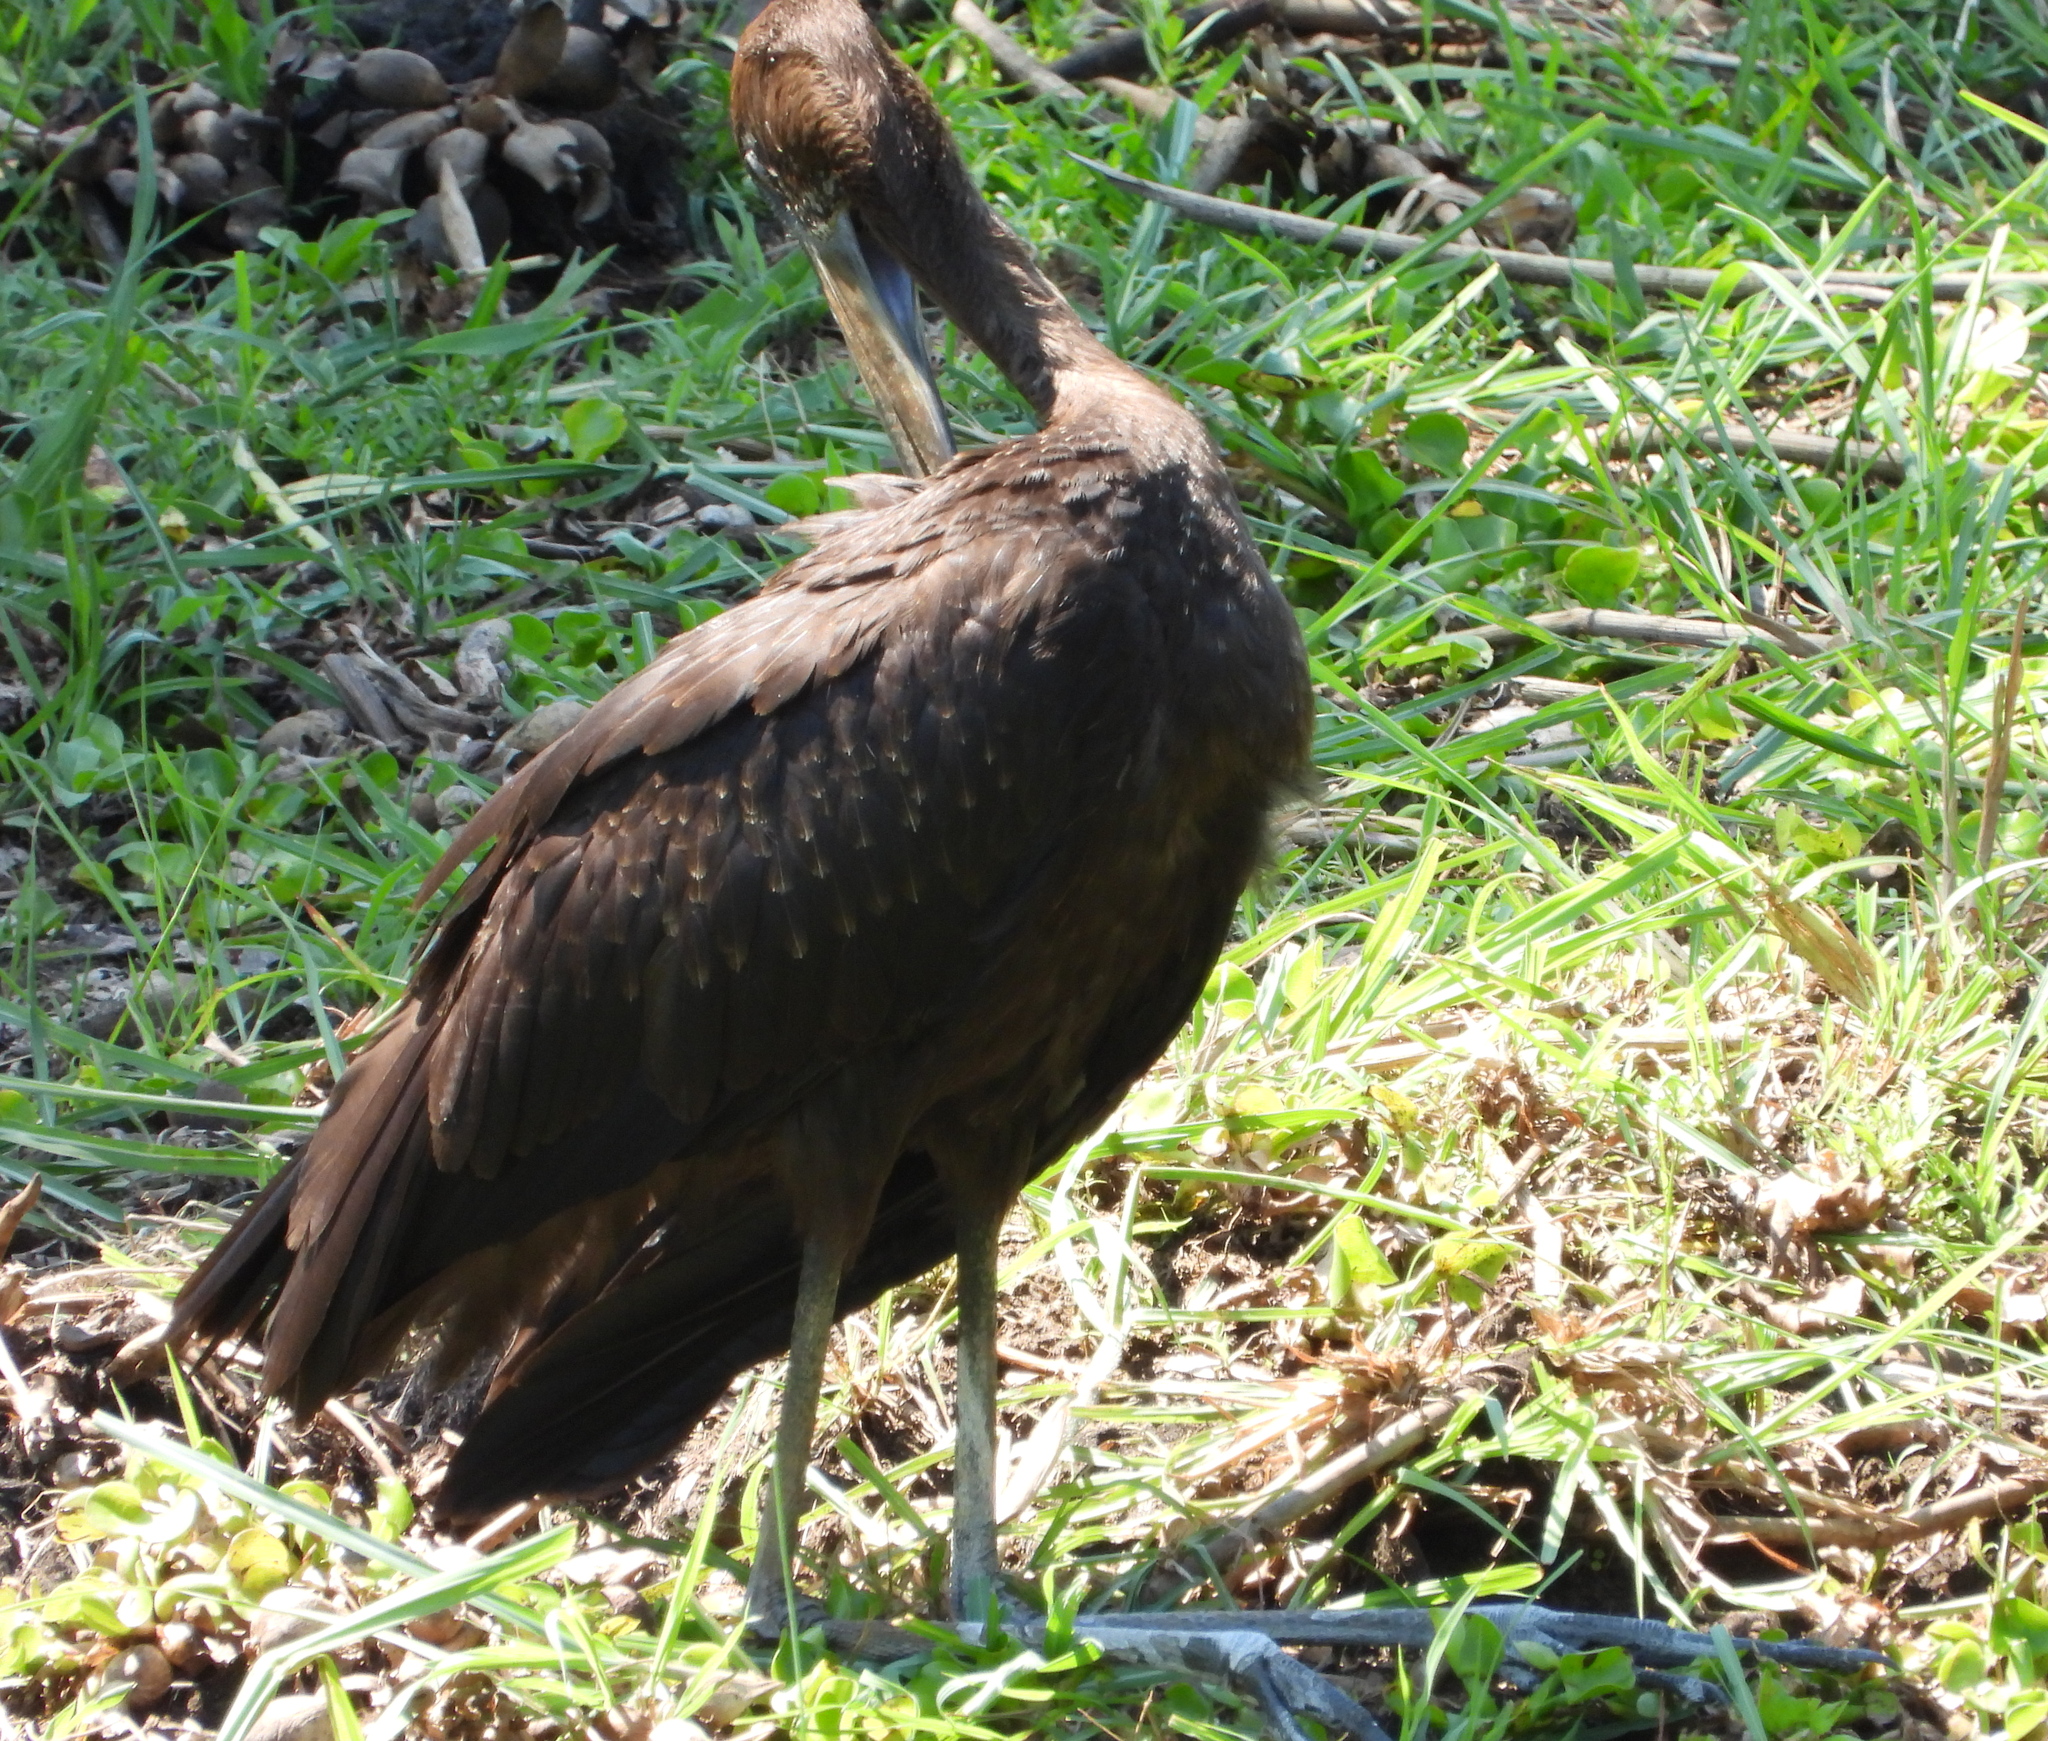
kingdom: Animalia
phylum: Chordata
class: Aves
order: Ciconiiformes
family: Ciconiidae
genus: Anastomus
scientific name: Anastomus lamelligerus
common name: African openbill
